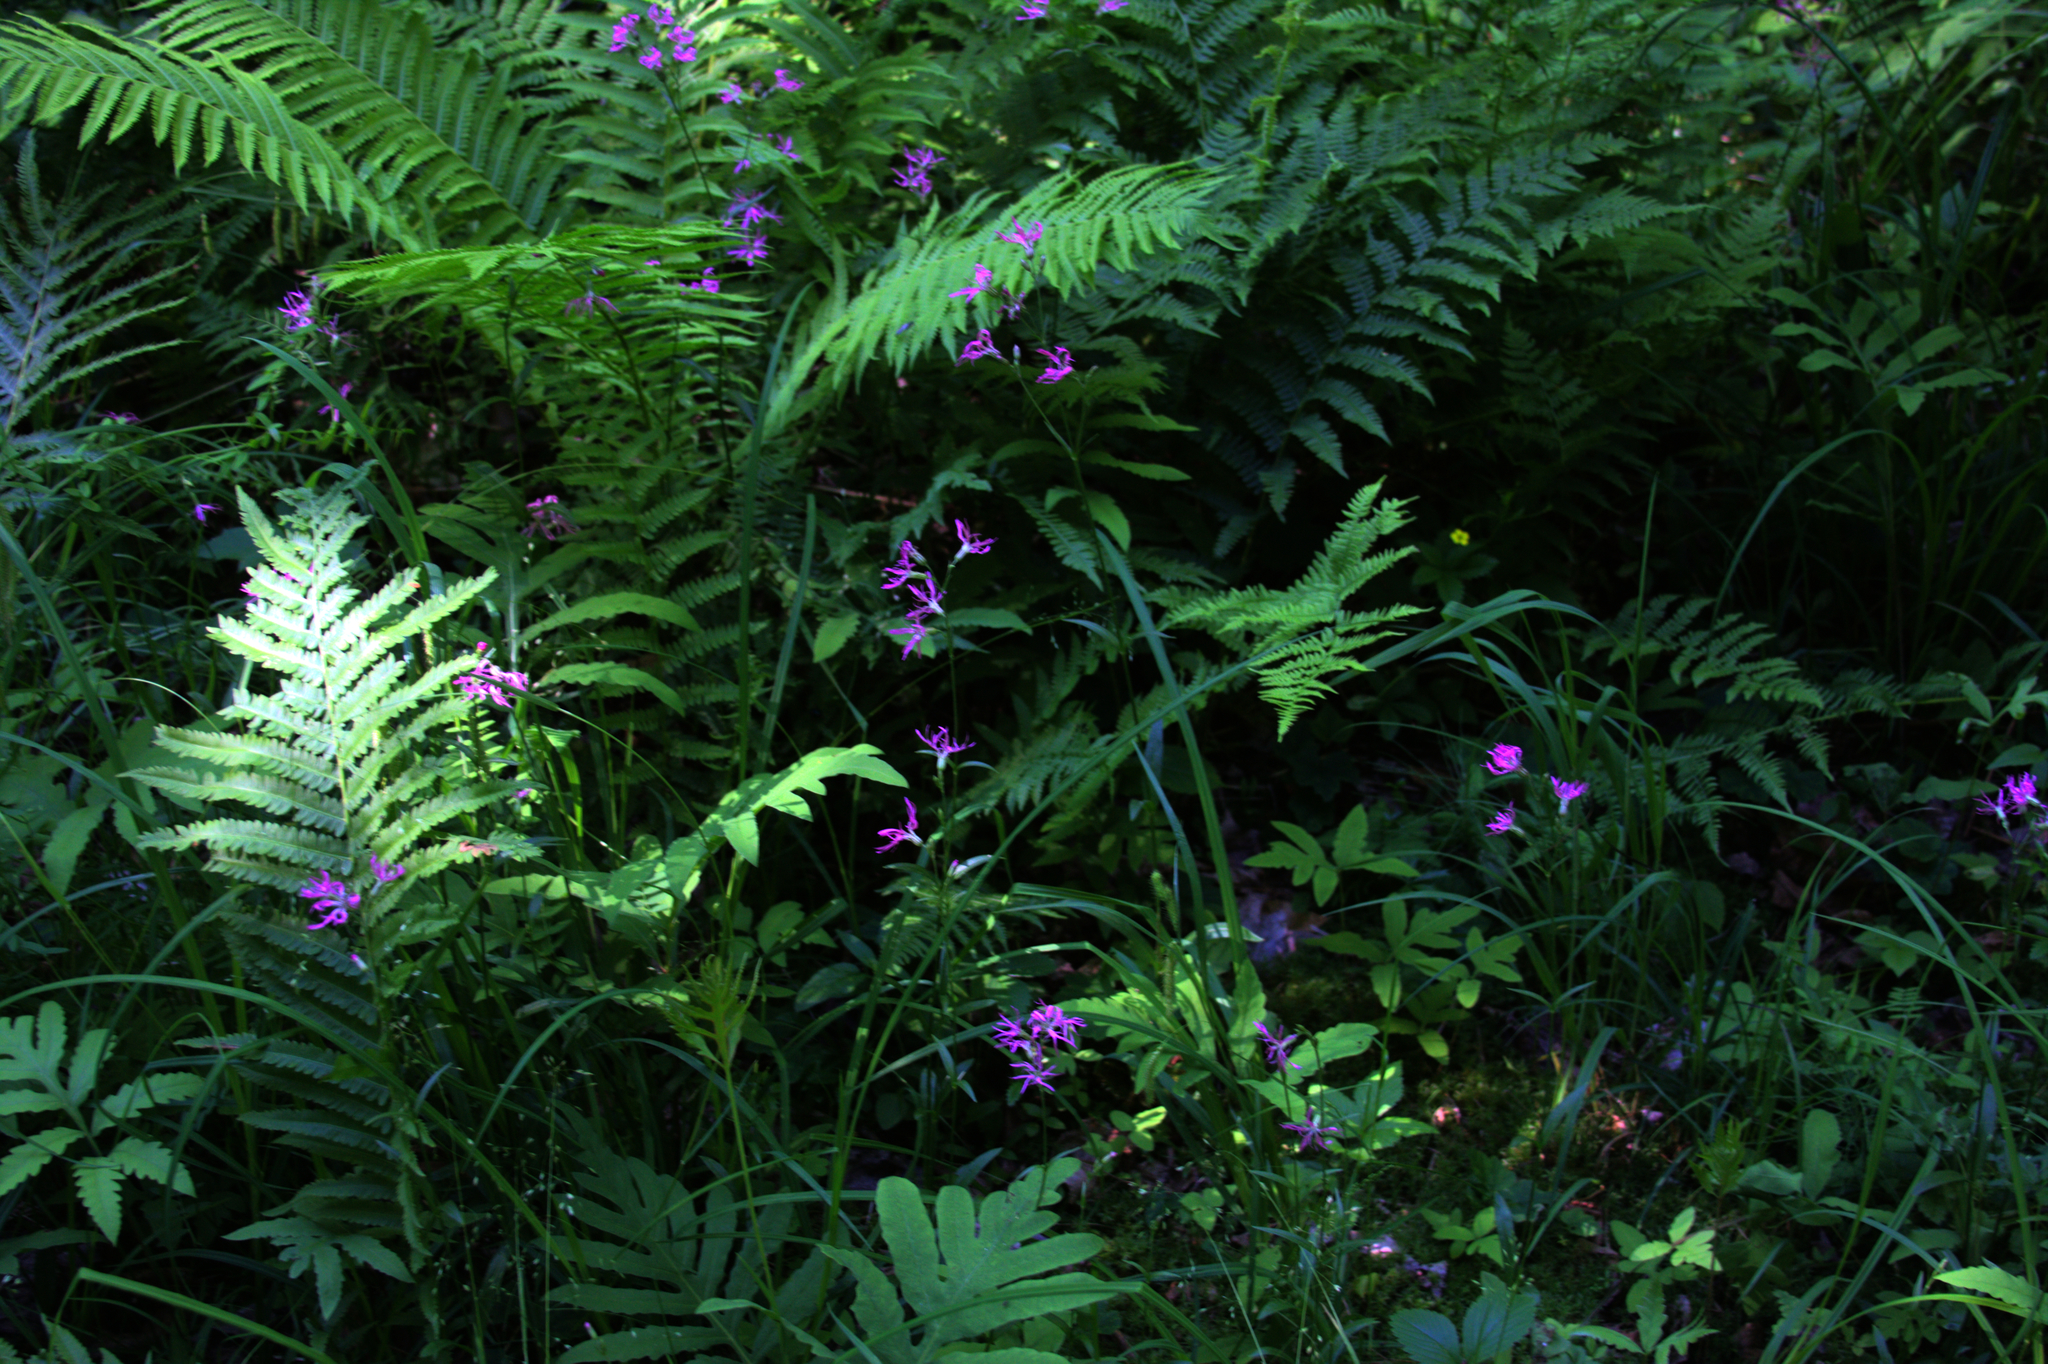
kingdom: Plantae
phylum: Tracheophyta
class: Magnoliopsida
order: Caryophyllales
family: Caryophyllaceae
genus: Silene
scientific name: Silene flos-cuculi
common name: Ragged-robin
